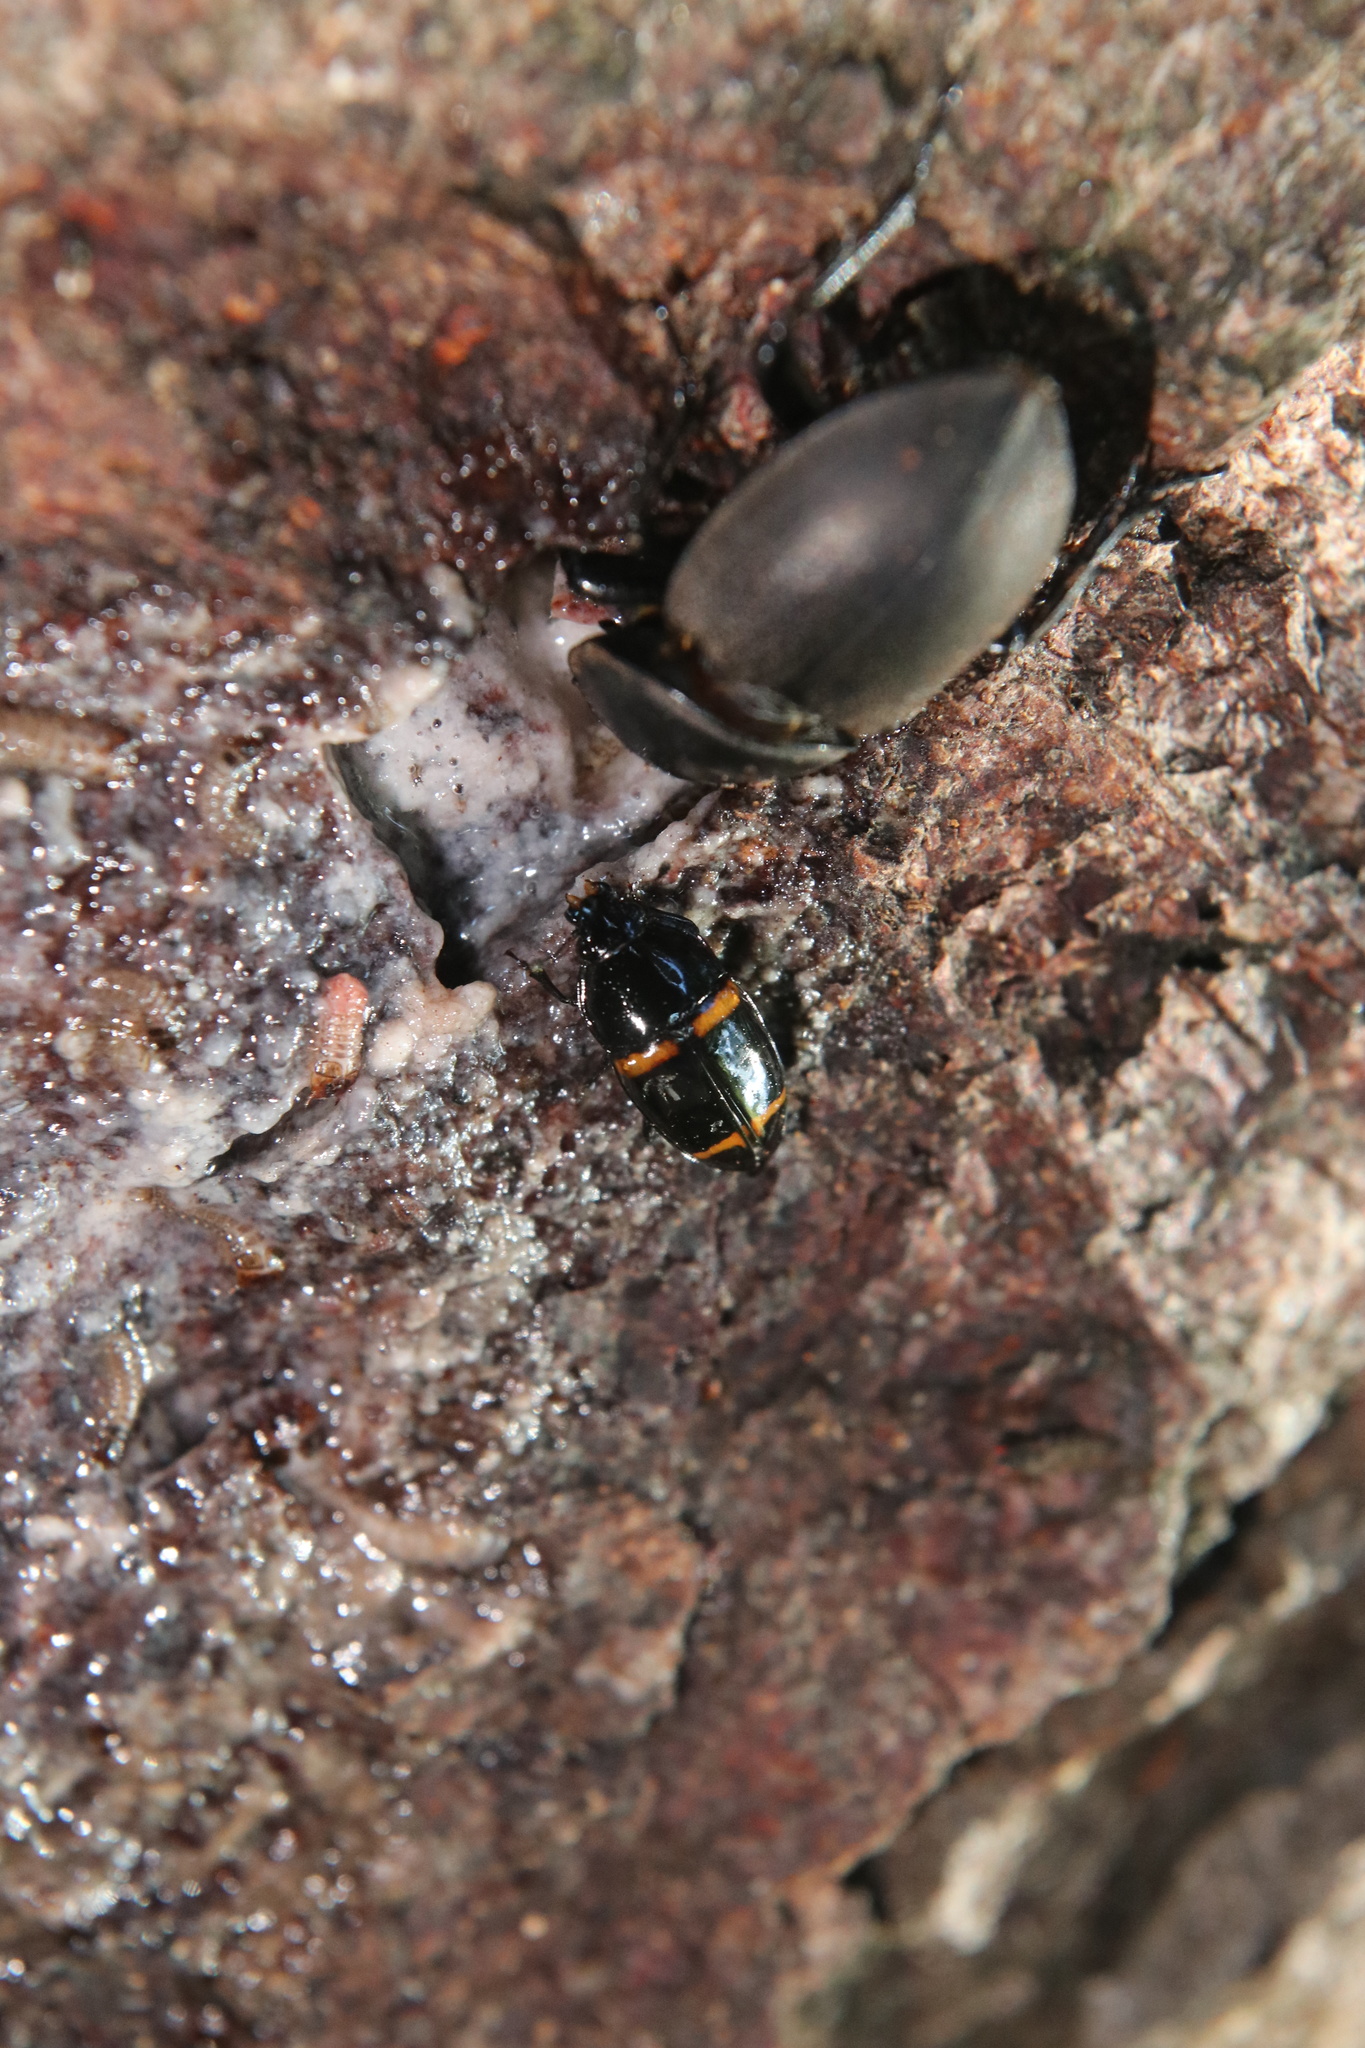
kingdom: Animalia
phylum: Arthropoda
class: Insecta
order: Coleoptera
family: Nitidulidae
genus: Lioschema
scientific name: Lioschema
